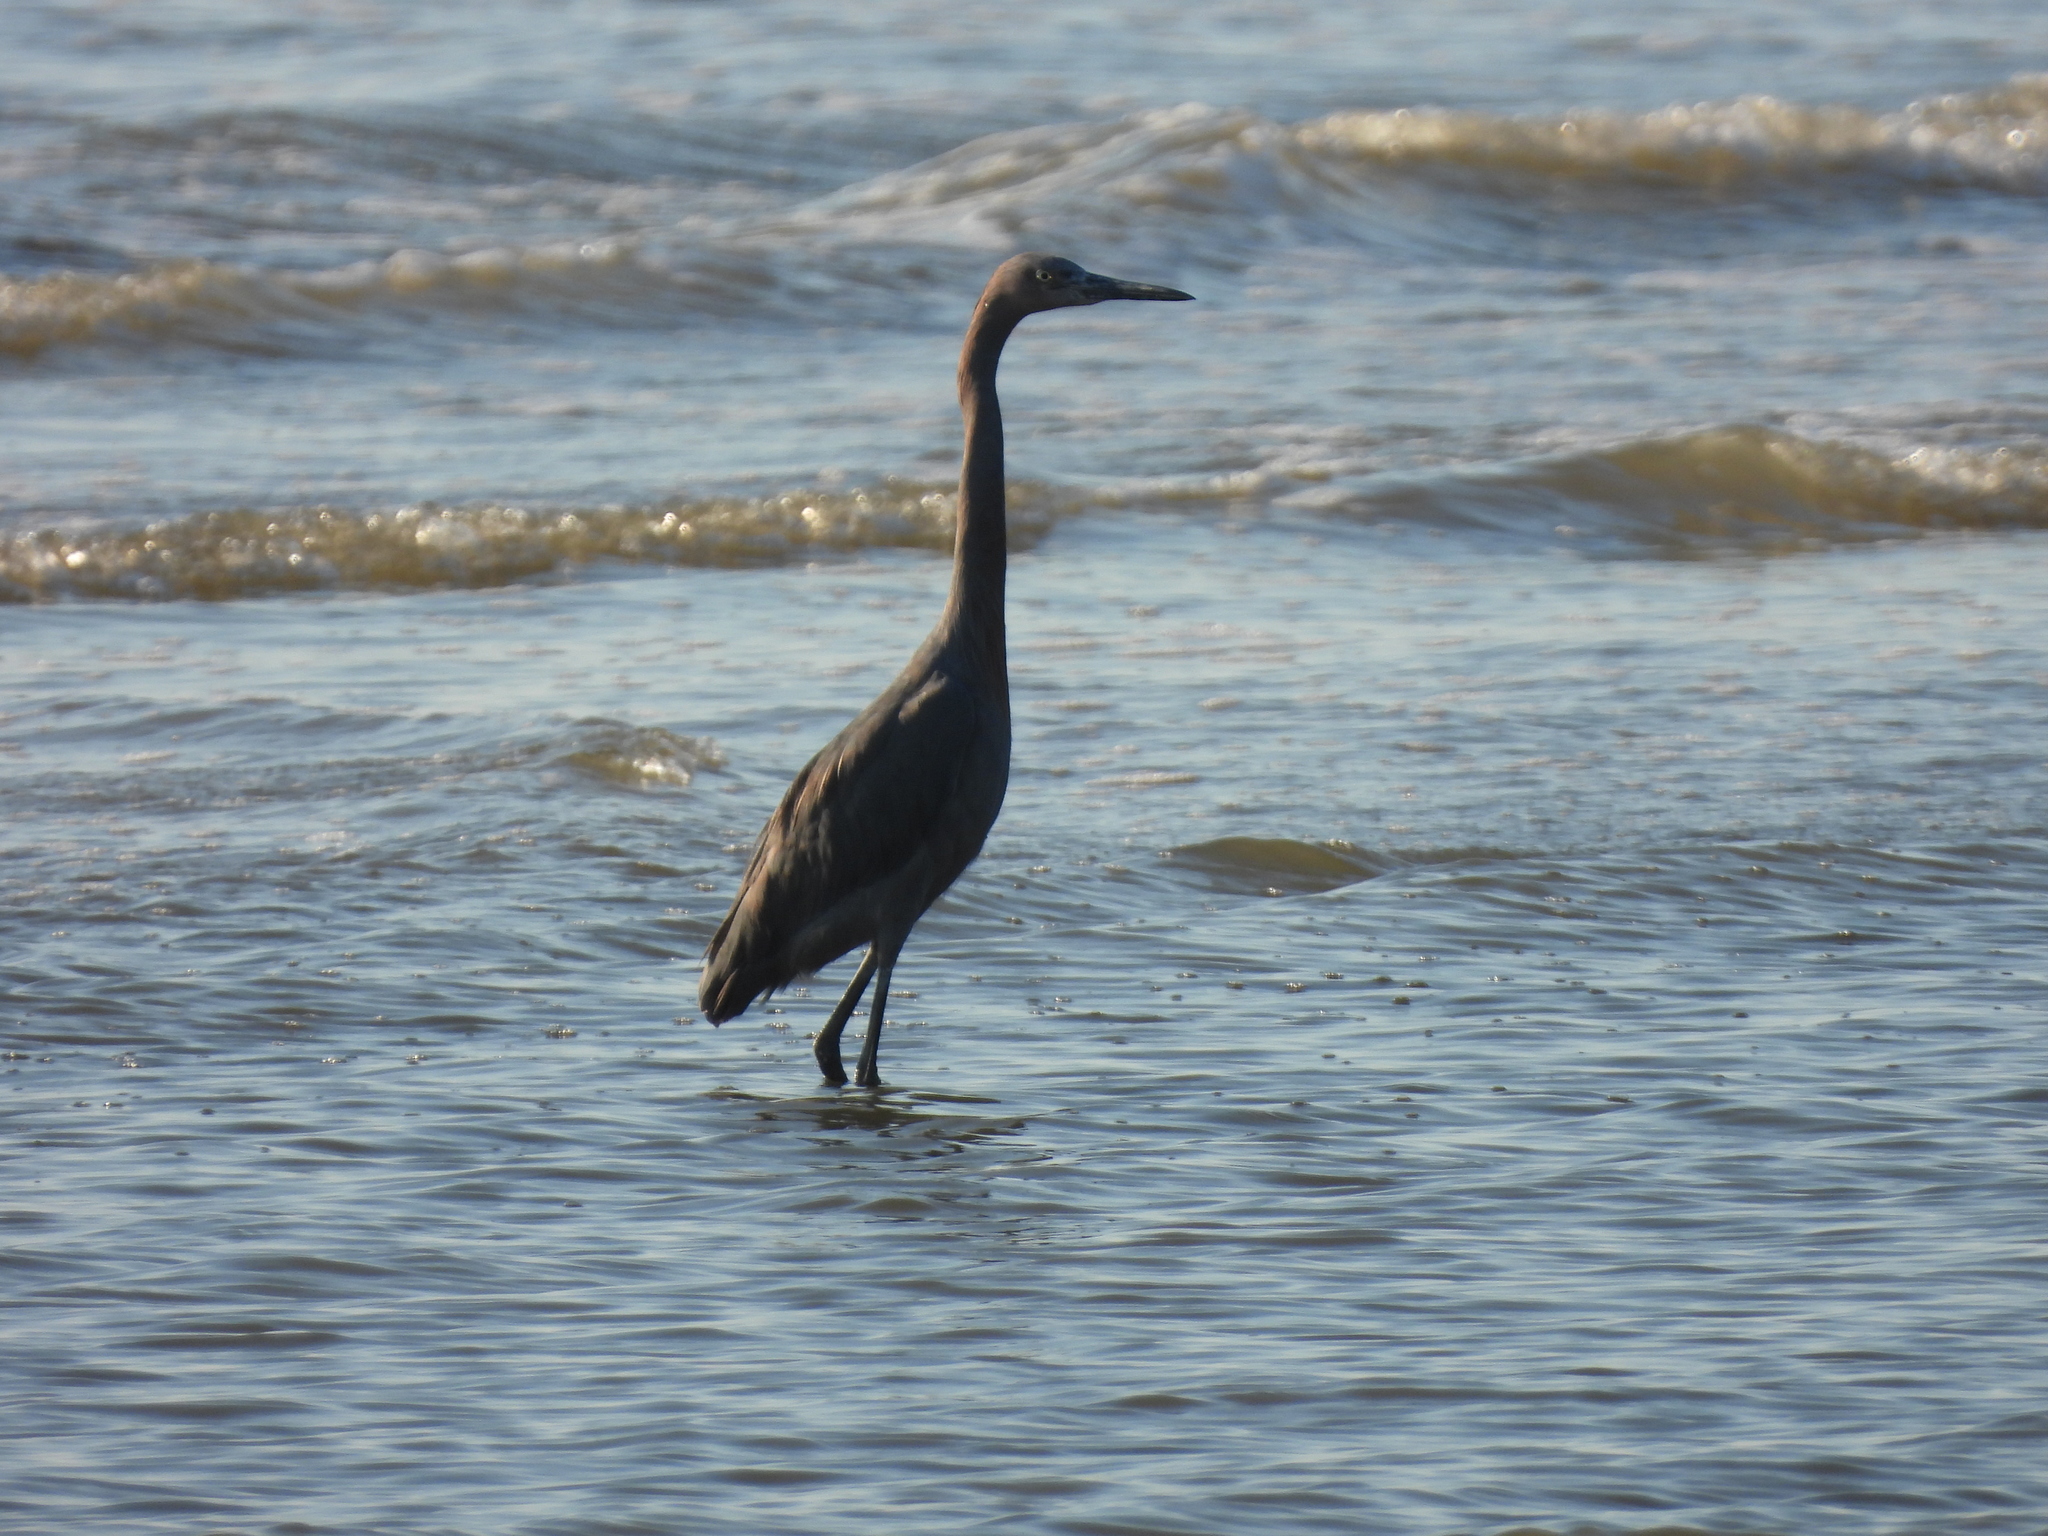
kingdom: Animalia
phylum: Chordata
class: Aves
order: Pelecaniformes
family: Ardeidae
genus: Egretta
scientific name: Egretta rufescens
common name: Reddish egret
